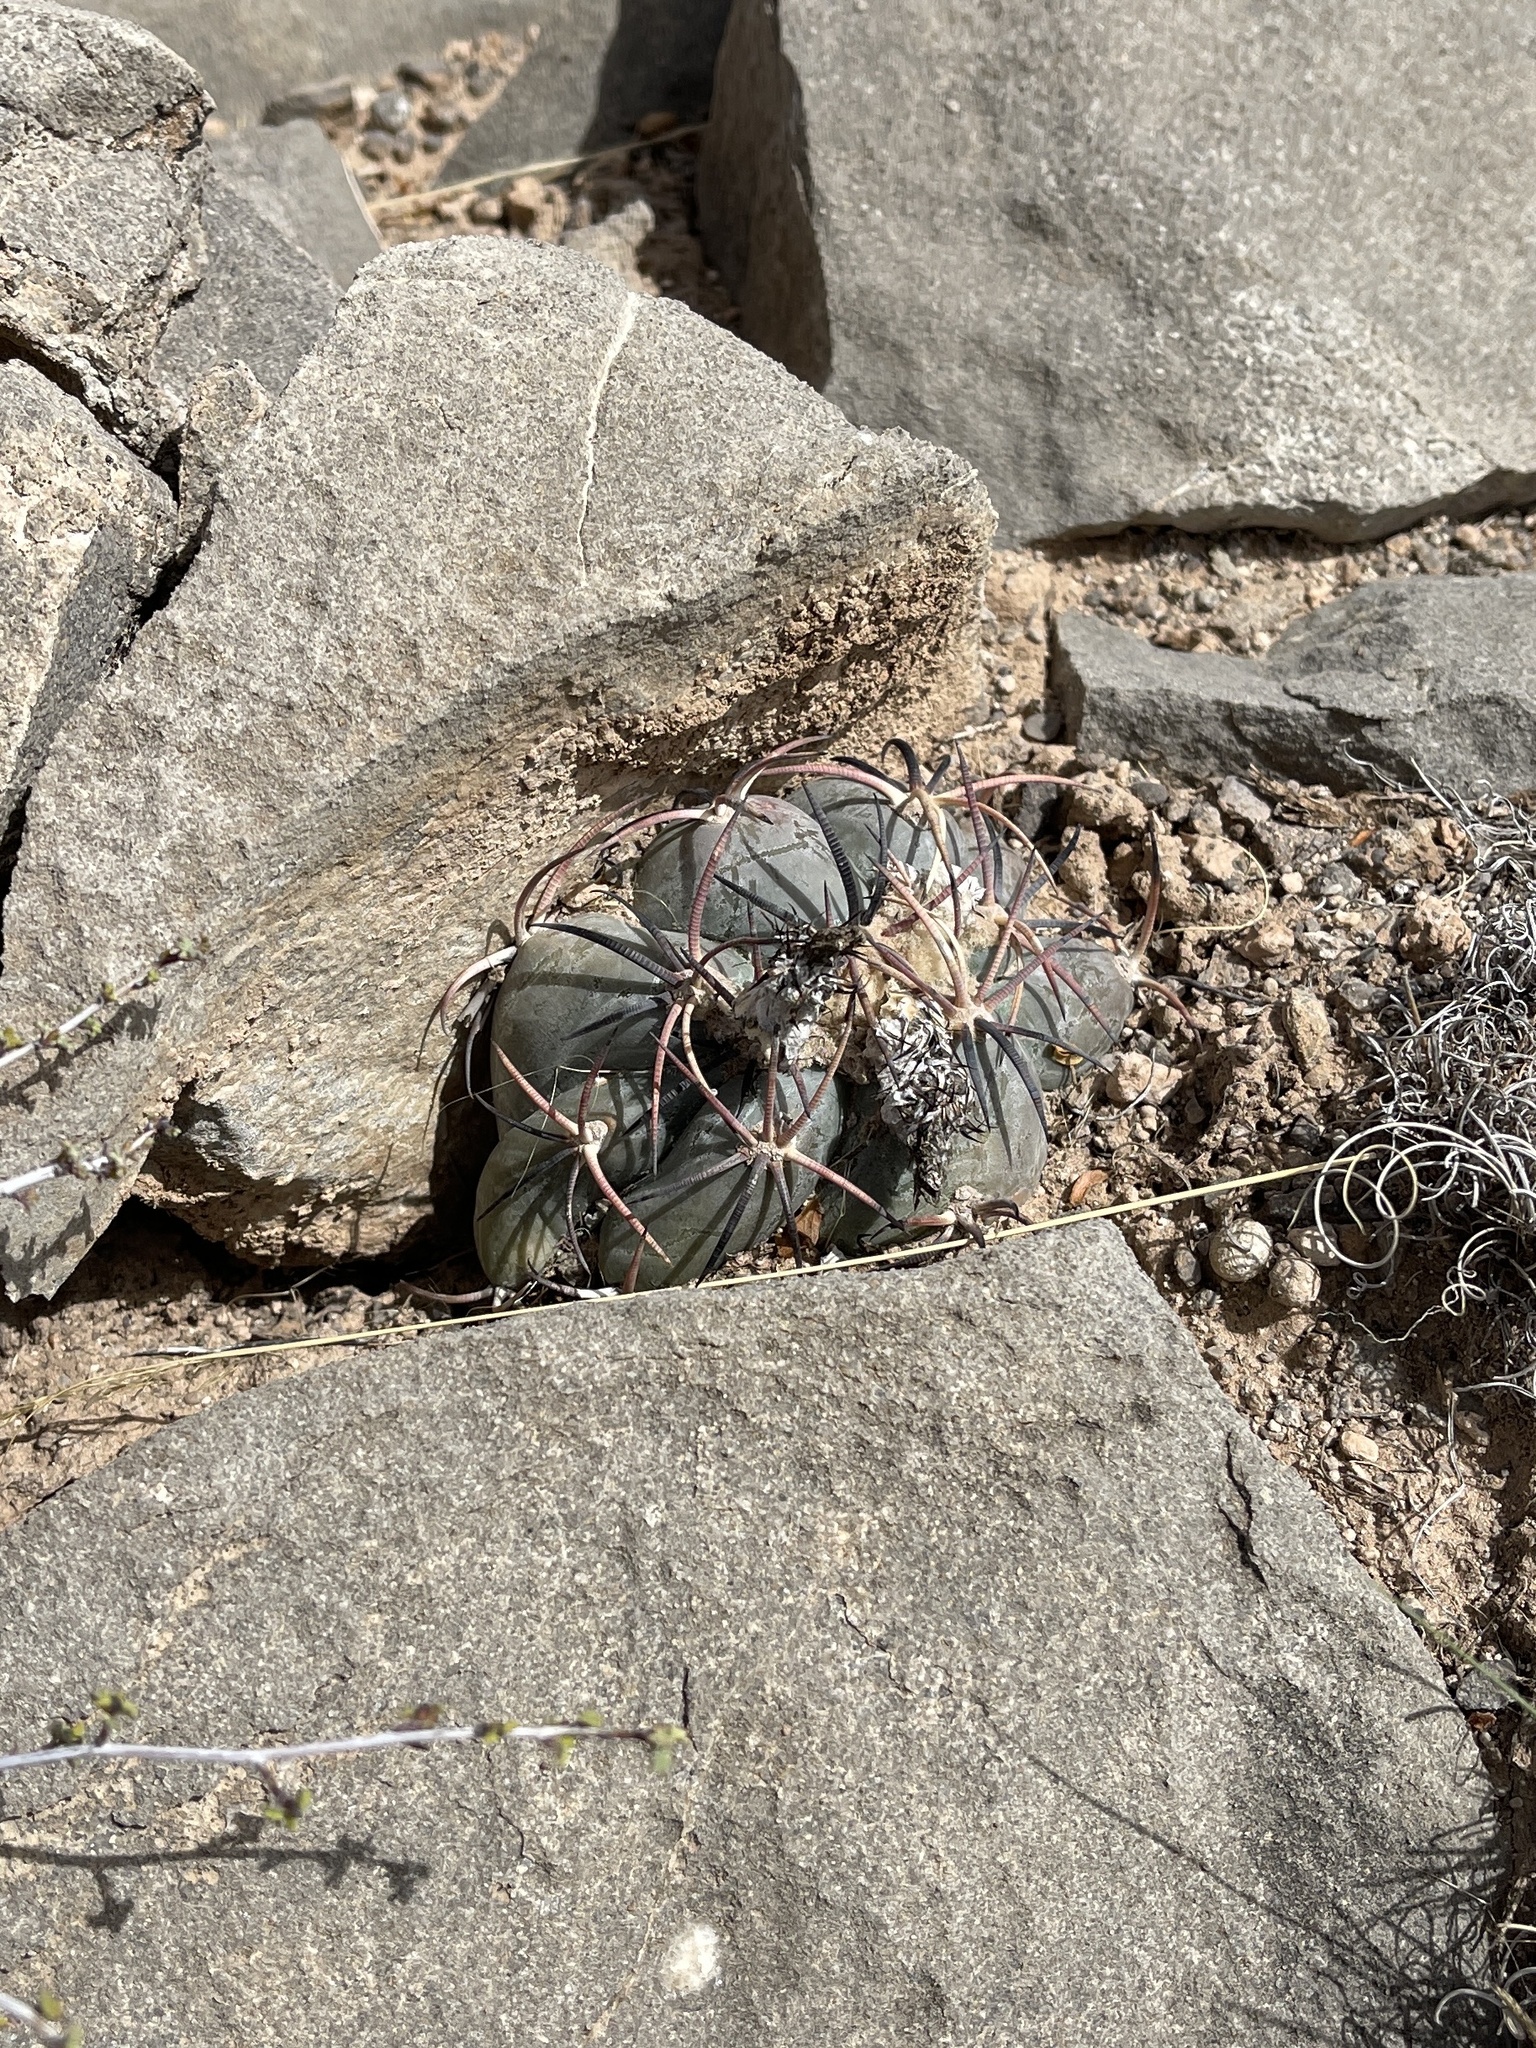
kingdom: Plantae
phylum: Tracheophyta
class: Magnoliopsida
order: Caryophyllales
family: Cactaceae
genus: Echinocactus
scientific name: Echinocactus horizonthalonius
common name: Devilshead
